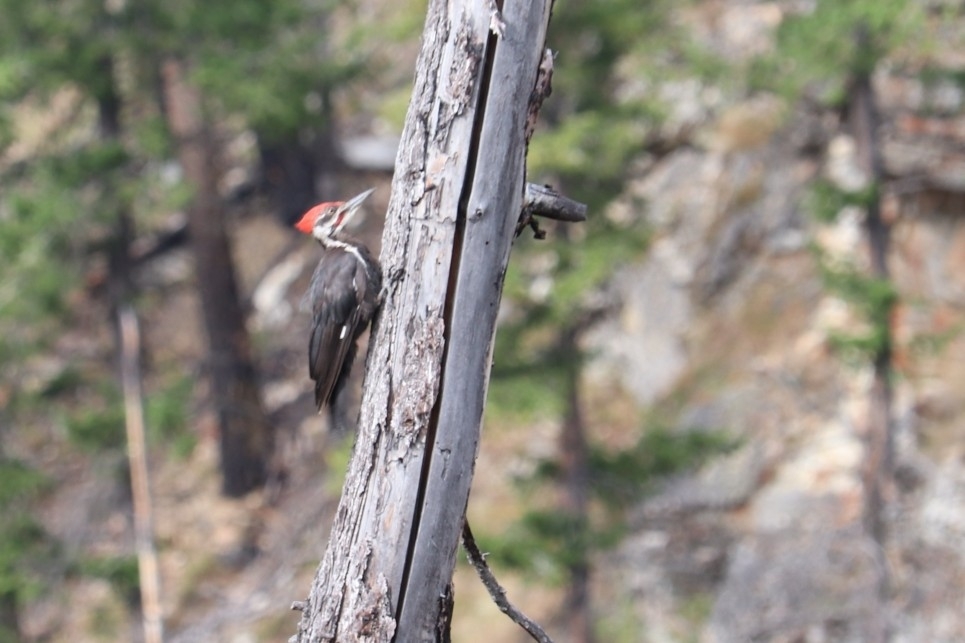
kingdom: Animalia
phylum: Chordata
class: Aves
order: Piciformes
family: Picidae
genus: Dryocopus
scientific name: Dryocopus pileatus
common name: Pileated woodpecker
